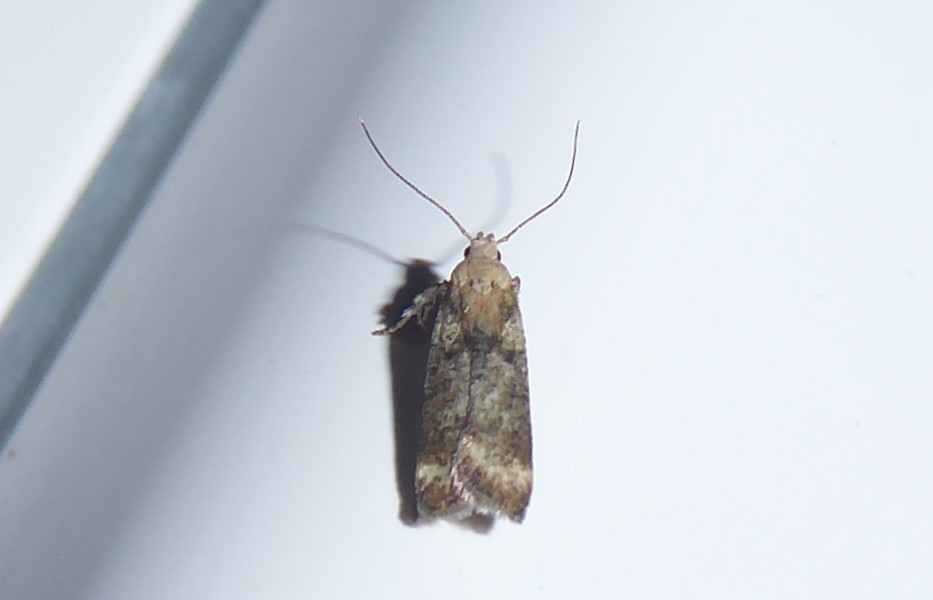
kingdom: Animalia
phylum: Arthropoda
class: Insecta
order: Lepidoptera
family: Gelechiidae
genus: Anisoplaca
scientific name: Anisoplaca acrodactyla
